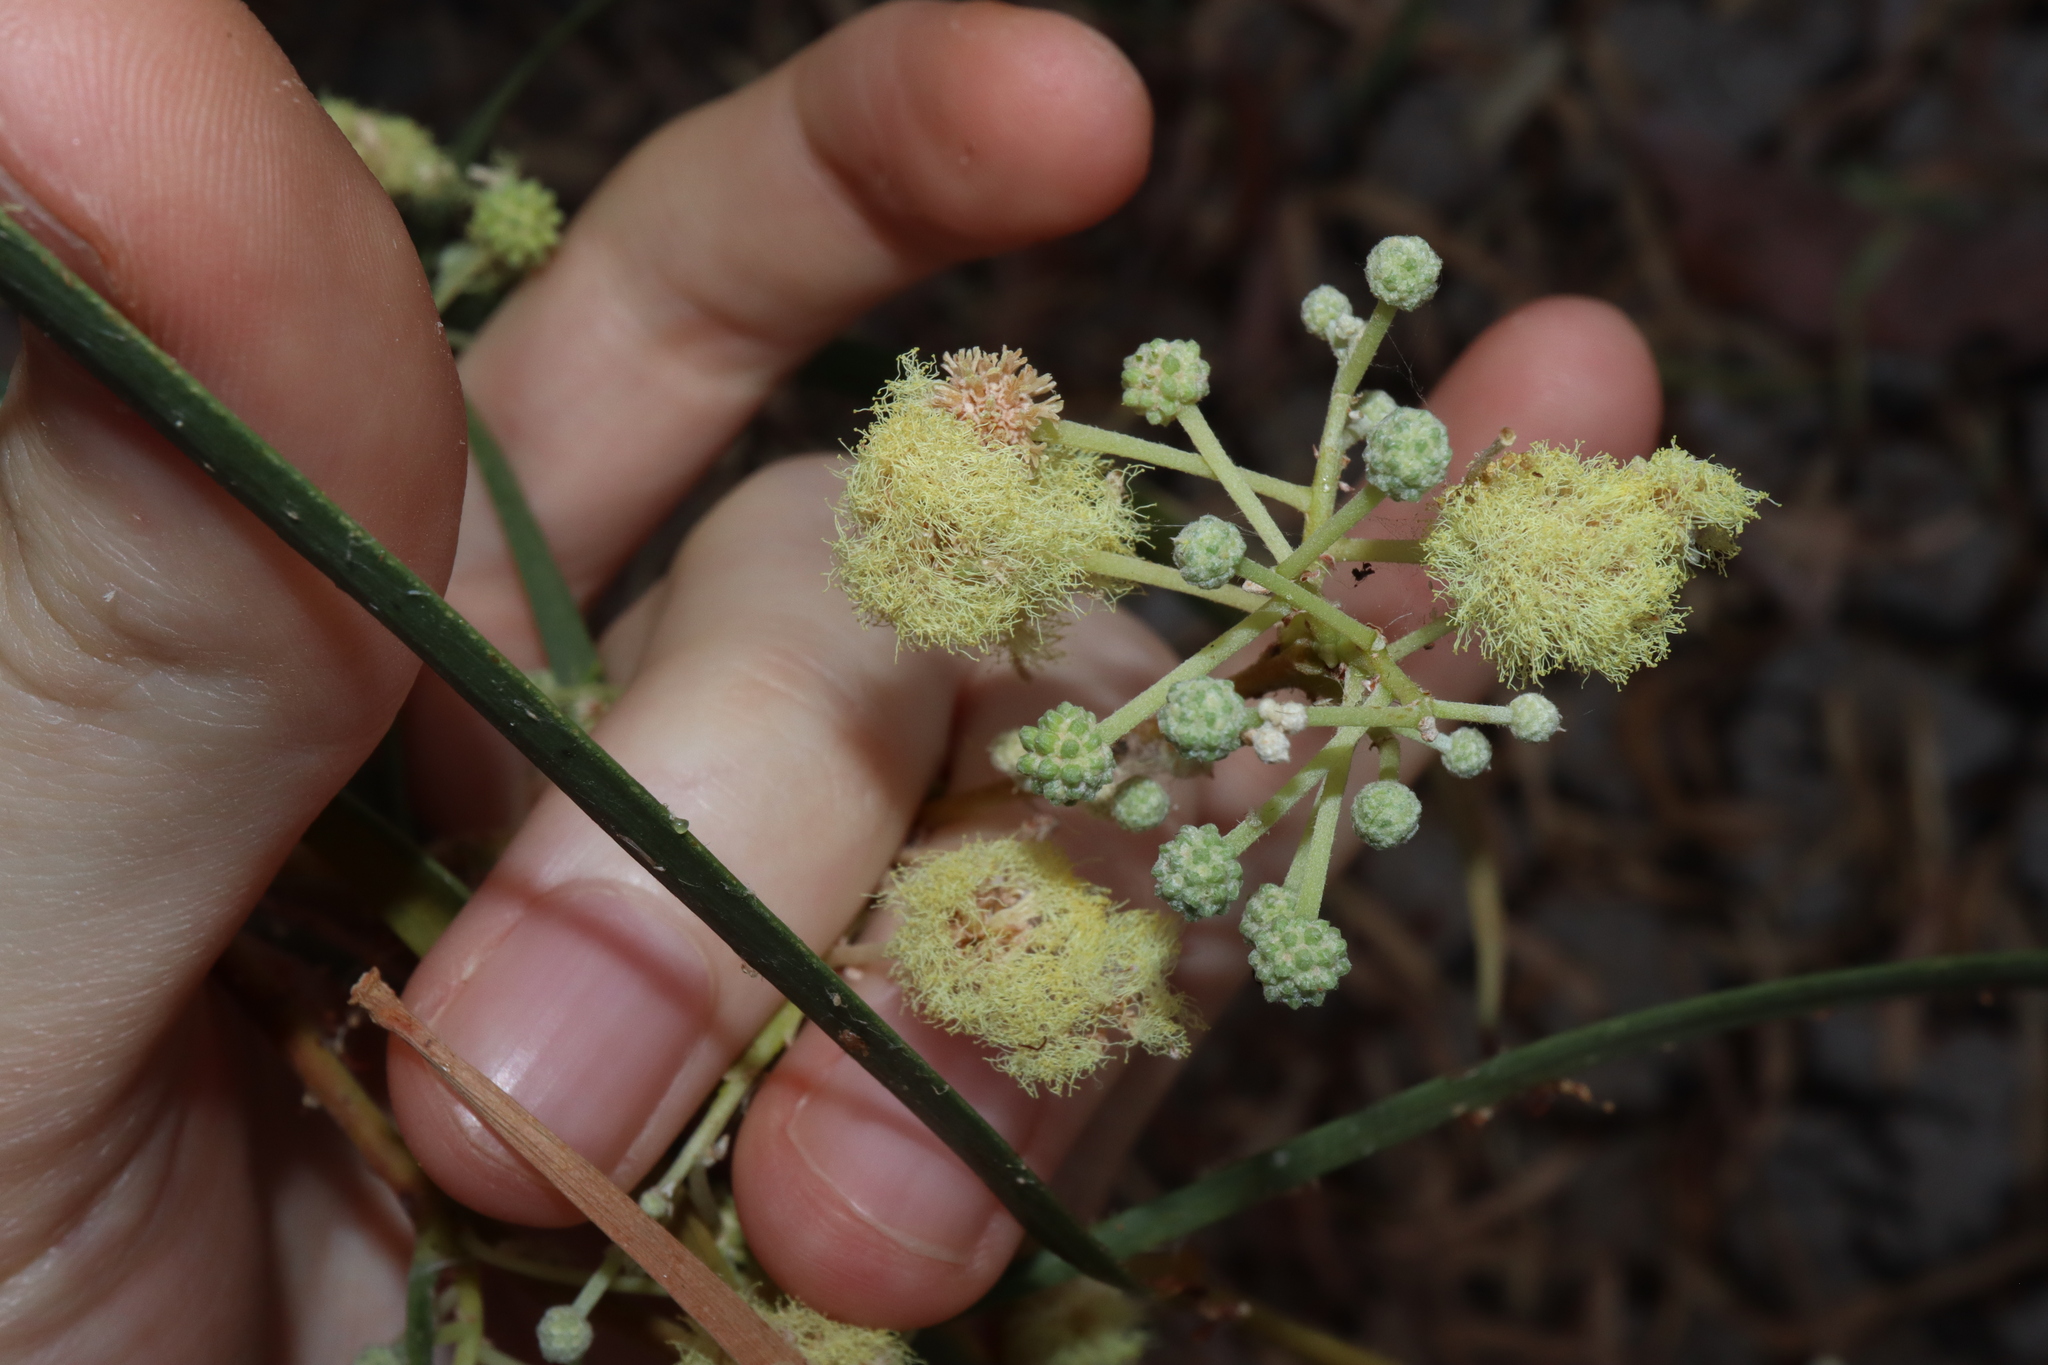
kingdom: Plantae
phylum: Tracheophyta
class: Magnoliopsida
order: Fabales
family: Fabaceae
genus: Acacia
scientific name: Acacia stenophylla
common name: River cooba
